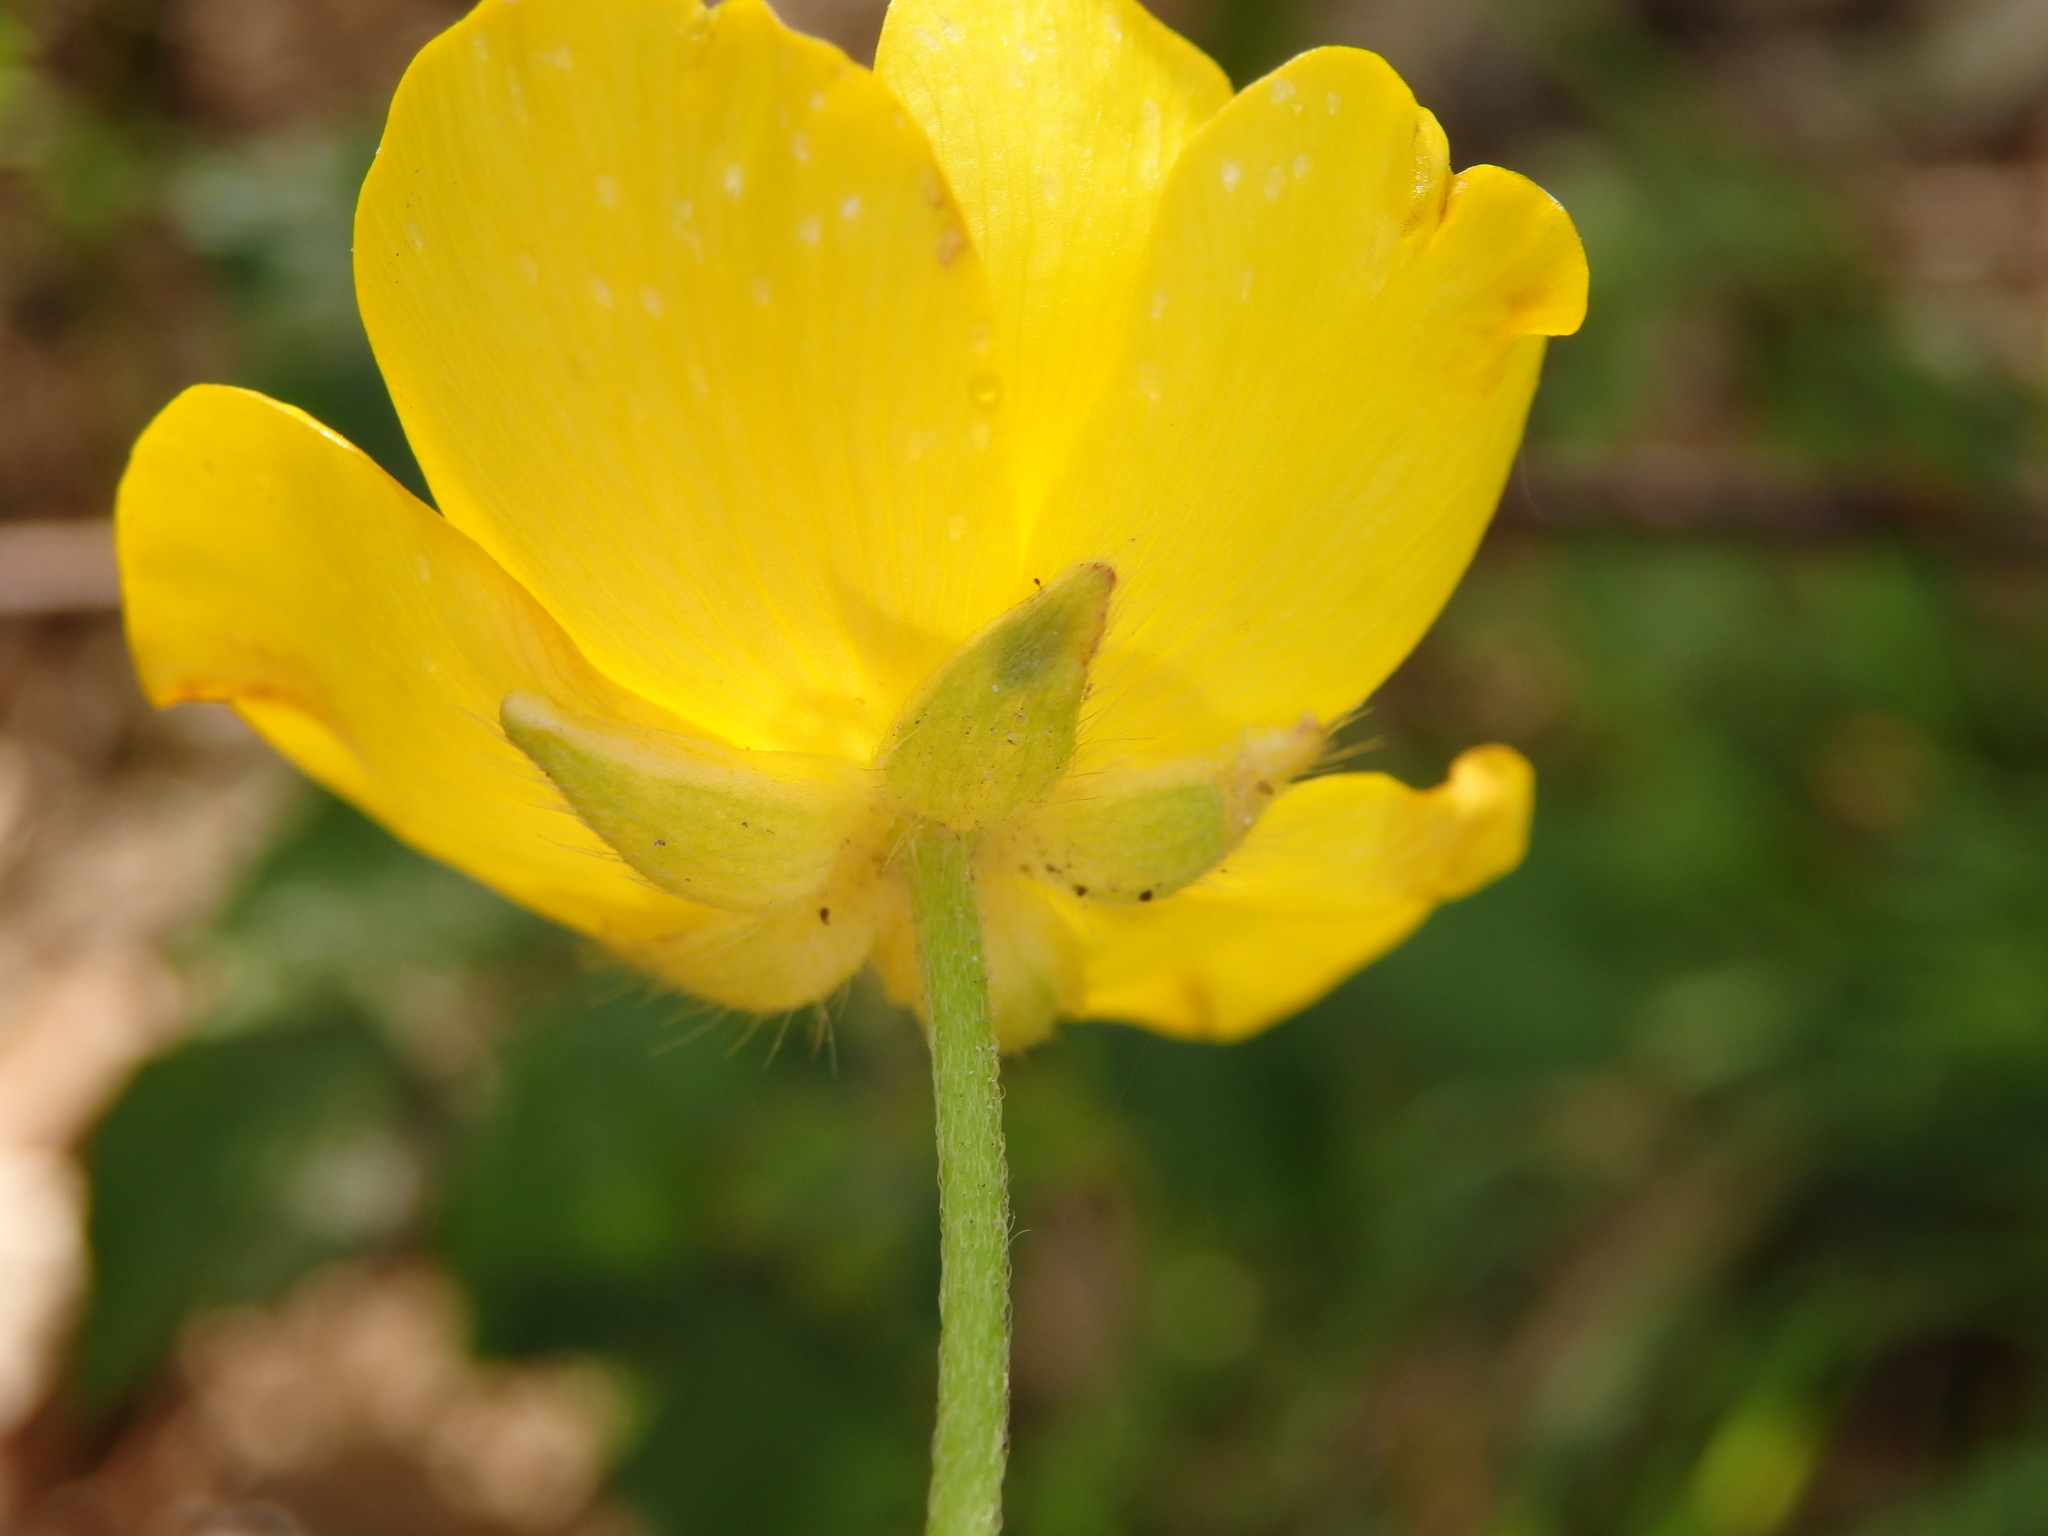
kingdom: Plantae
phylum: Tracheophyta
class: Magnoliopsida
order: Ranunculales
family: Ranunculaceae
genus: Ranunculus
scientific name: Ranunculus paludosus
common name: Jersey buttercup
